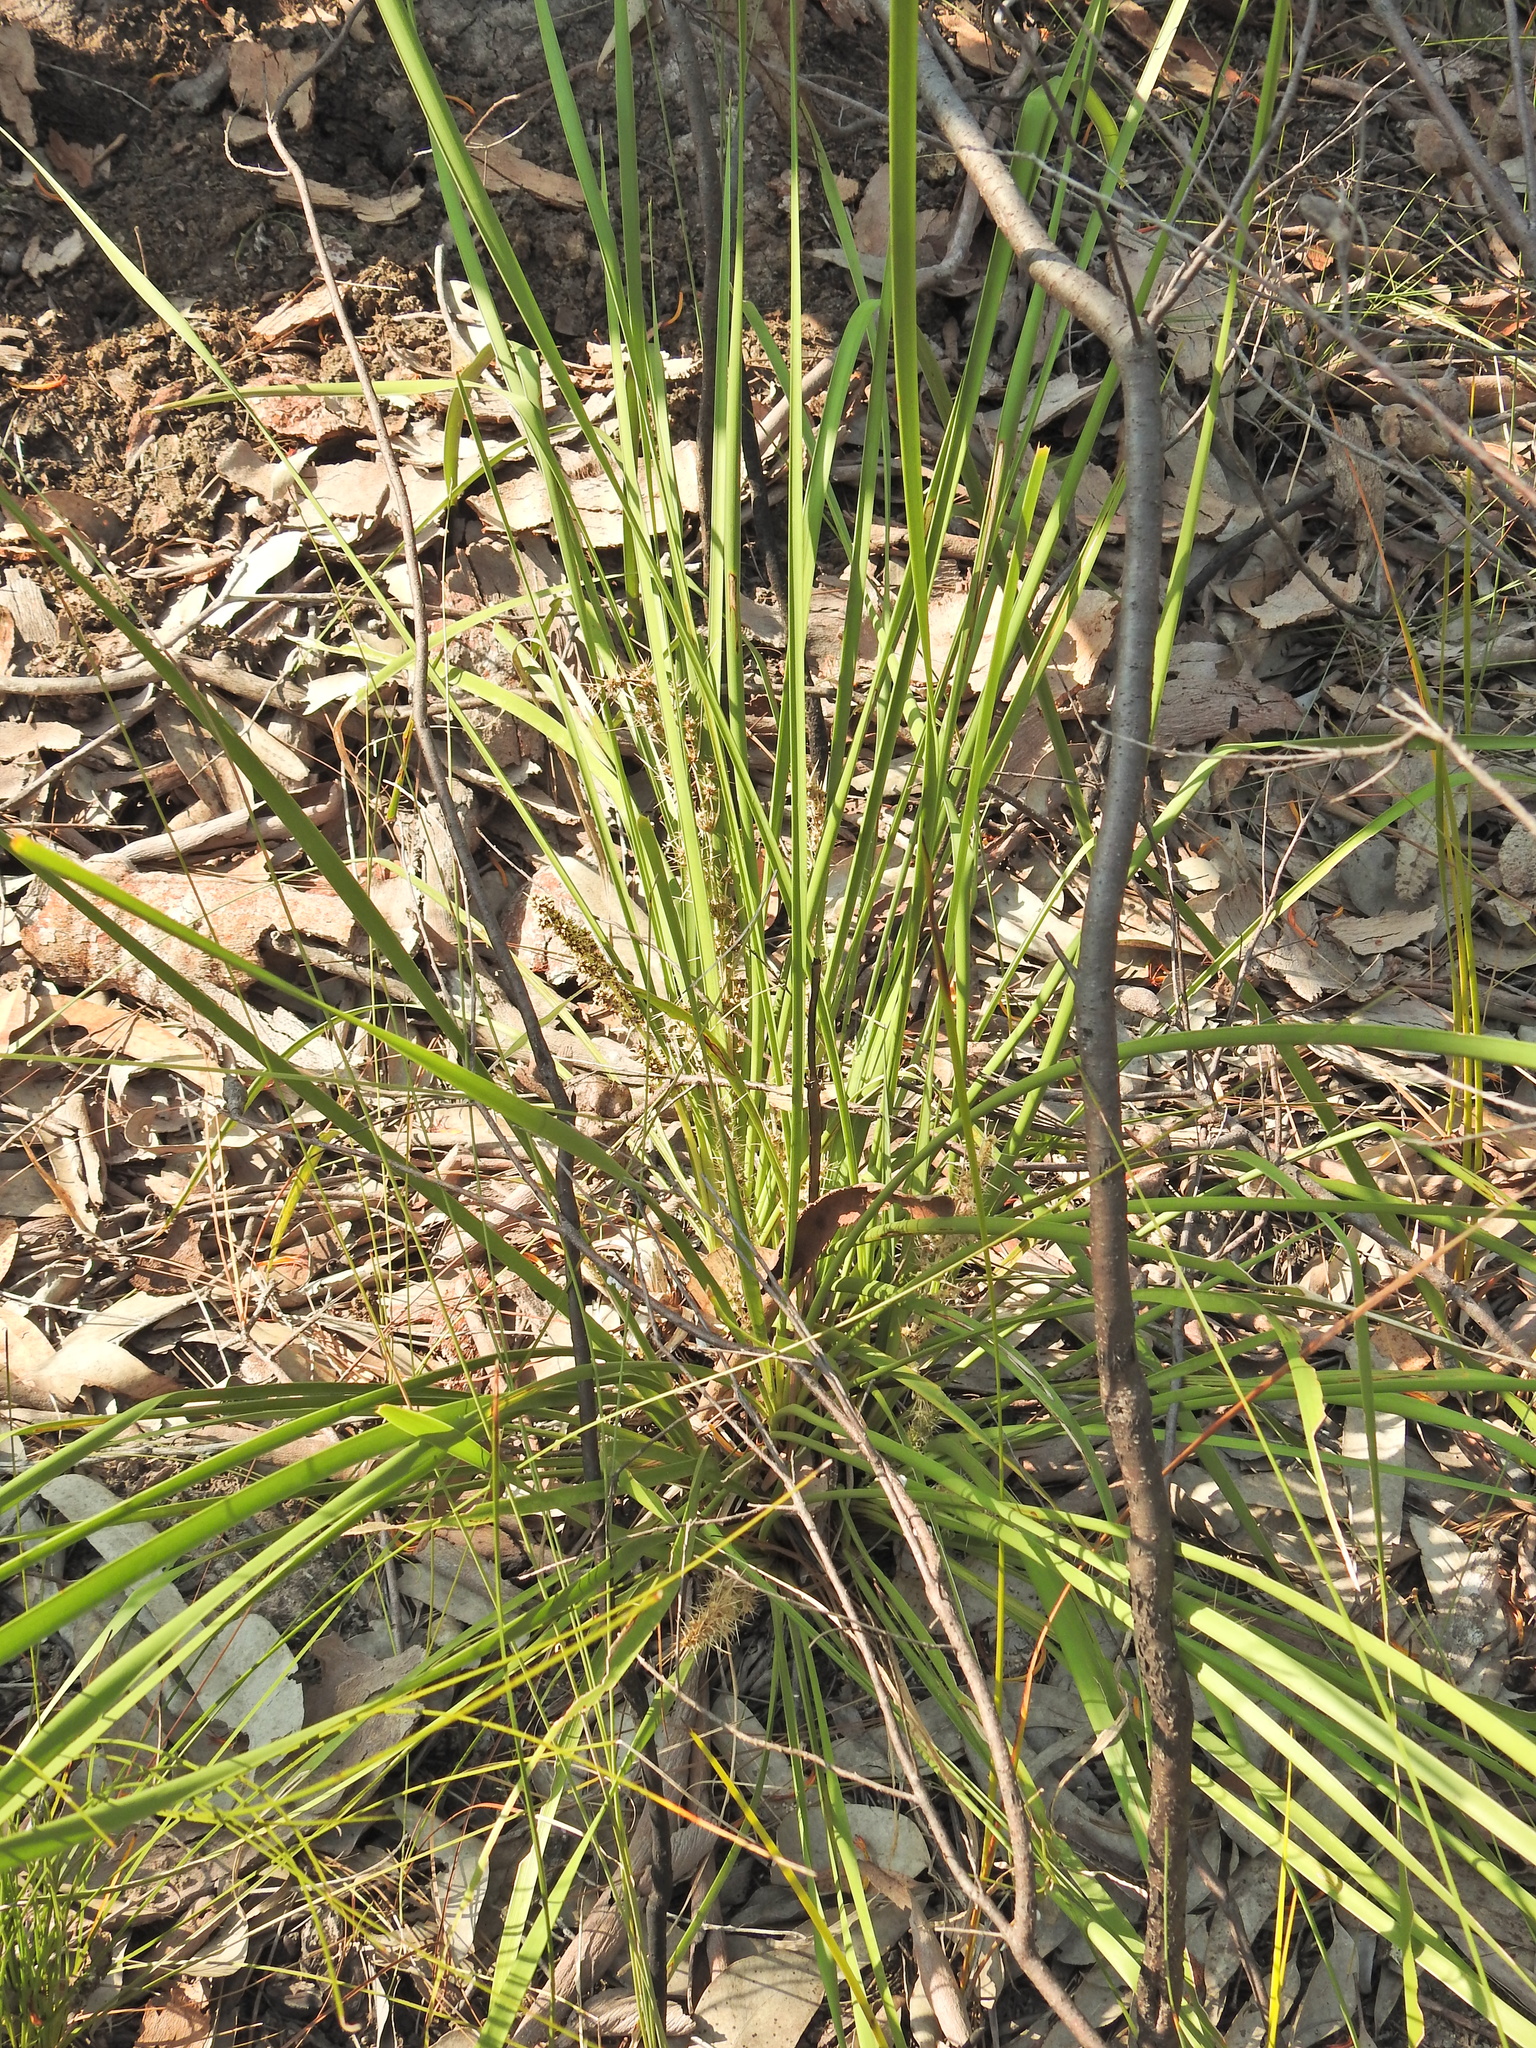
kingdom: Plantae
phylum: Tracheophyta
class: Liliopsida
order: Asparagales
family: Asparagaceae
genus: Lomandra
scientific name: Lomandra longifolia
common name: Longleaf mat-rush
